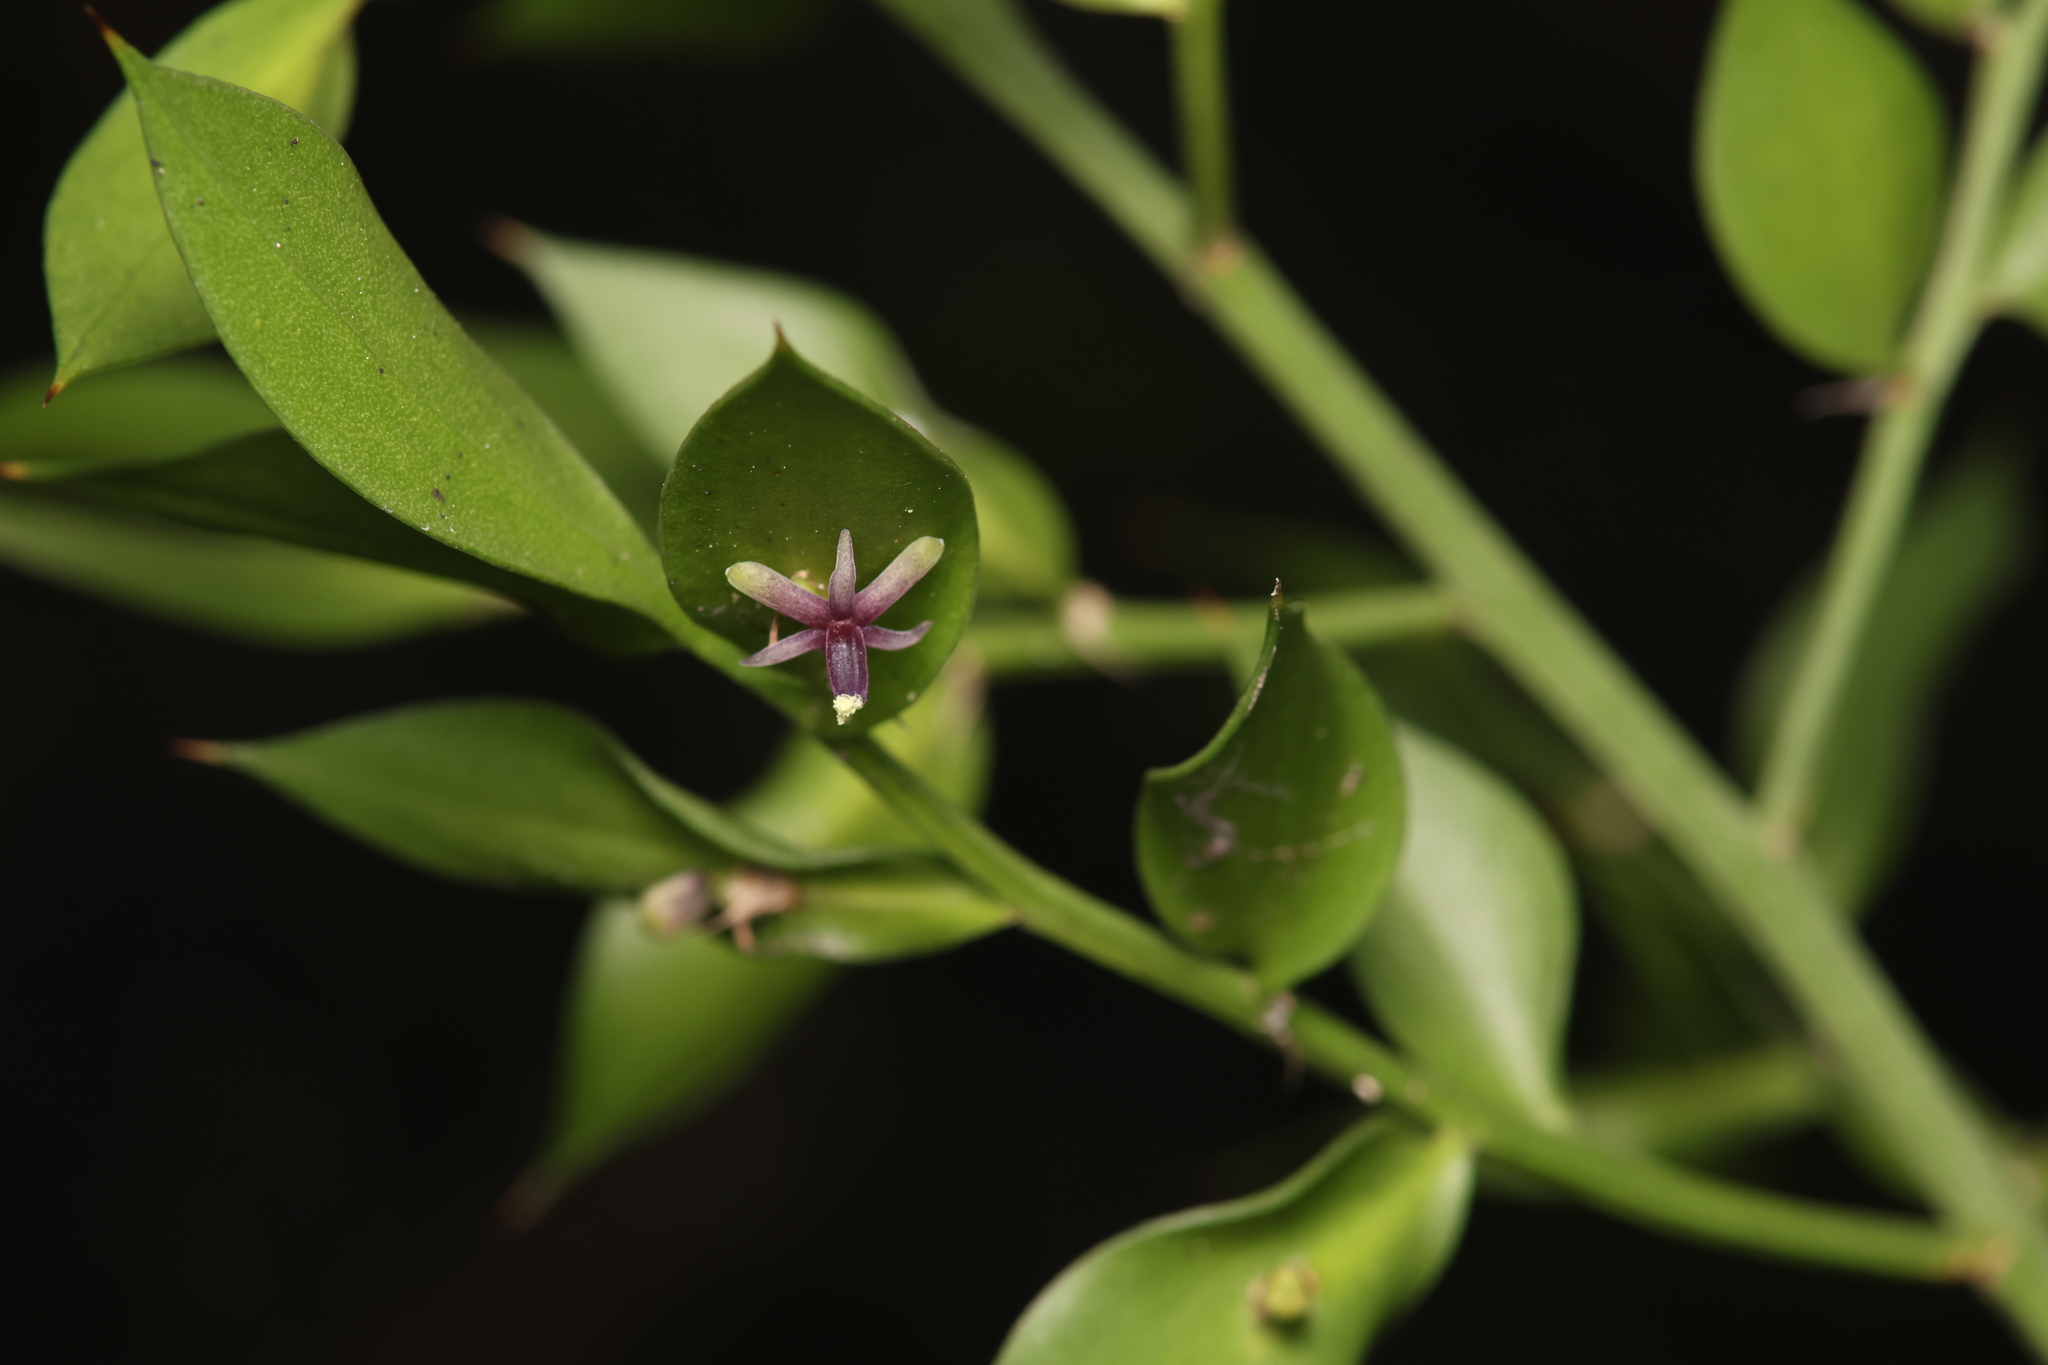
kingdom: Plantae
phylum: Tracheophyta
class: Liliopsida
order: Asparagales
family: Asparagaceae
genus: Ruscus
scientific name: Ruscus aculeatus
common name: Butcher's-broom
